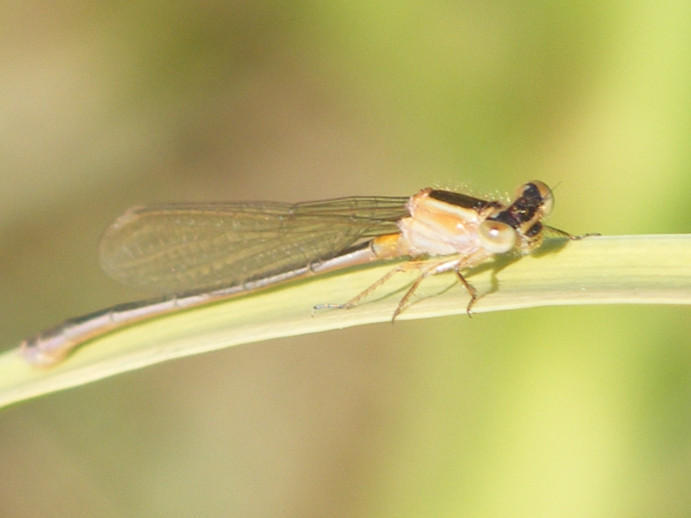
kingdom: Animalia
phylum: Arthropoda
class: Insecta
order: Odonata
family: Coenagrionidae
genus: Ischnura
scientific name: Ischnura senegalensis
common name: Tropical bluetail
